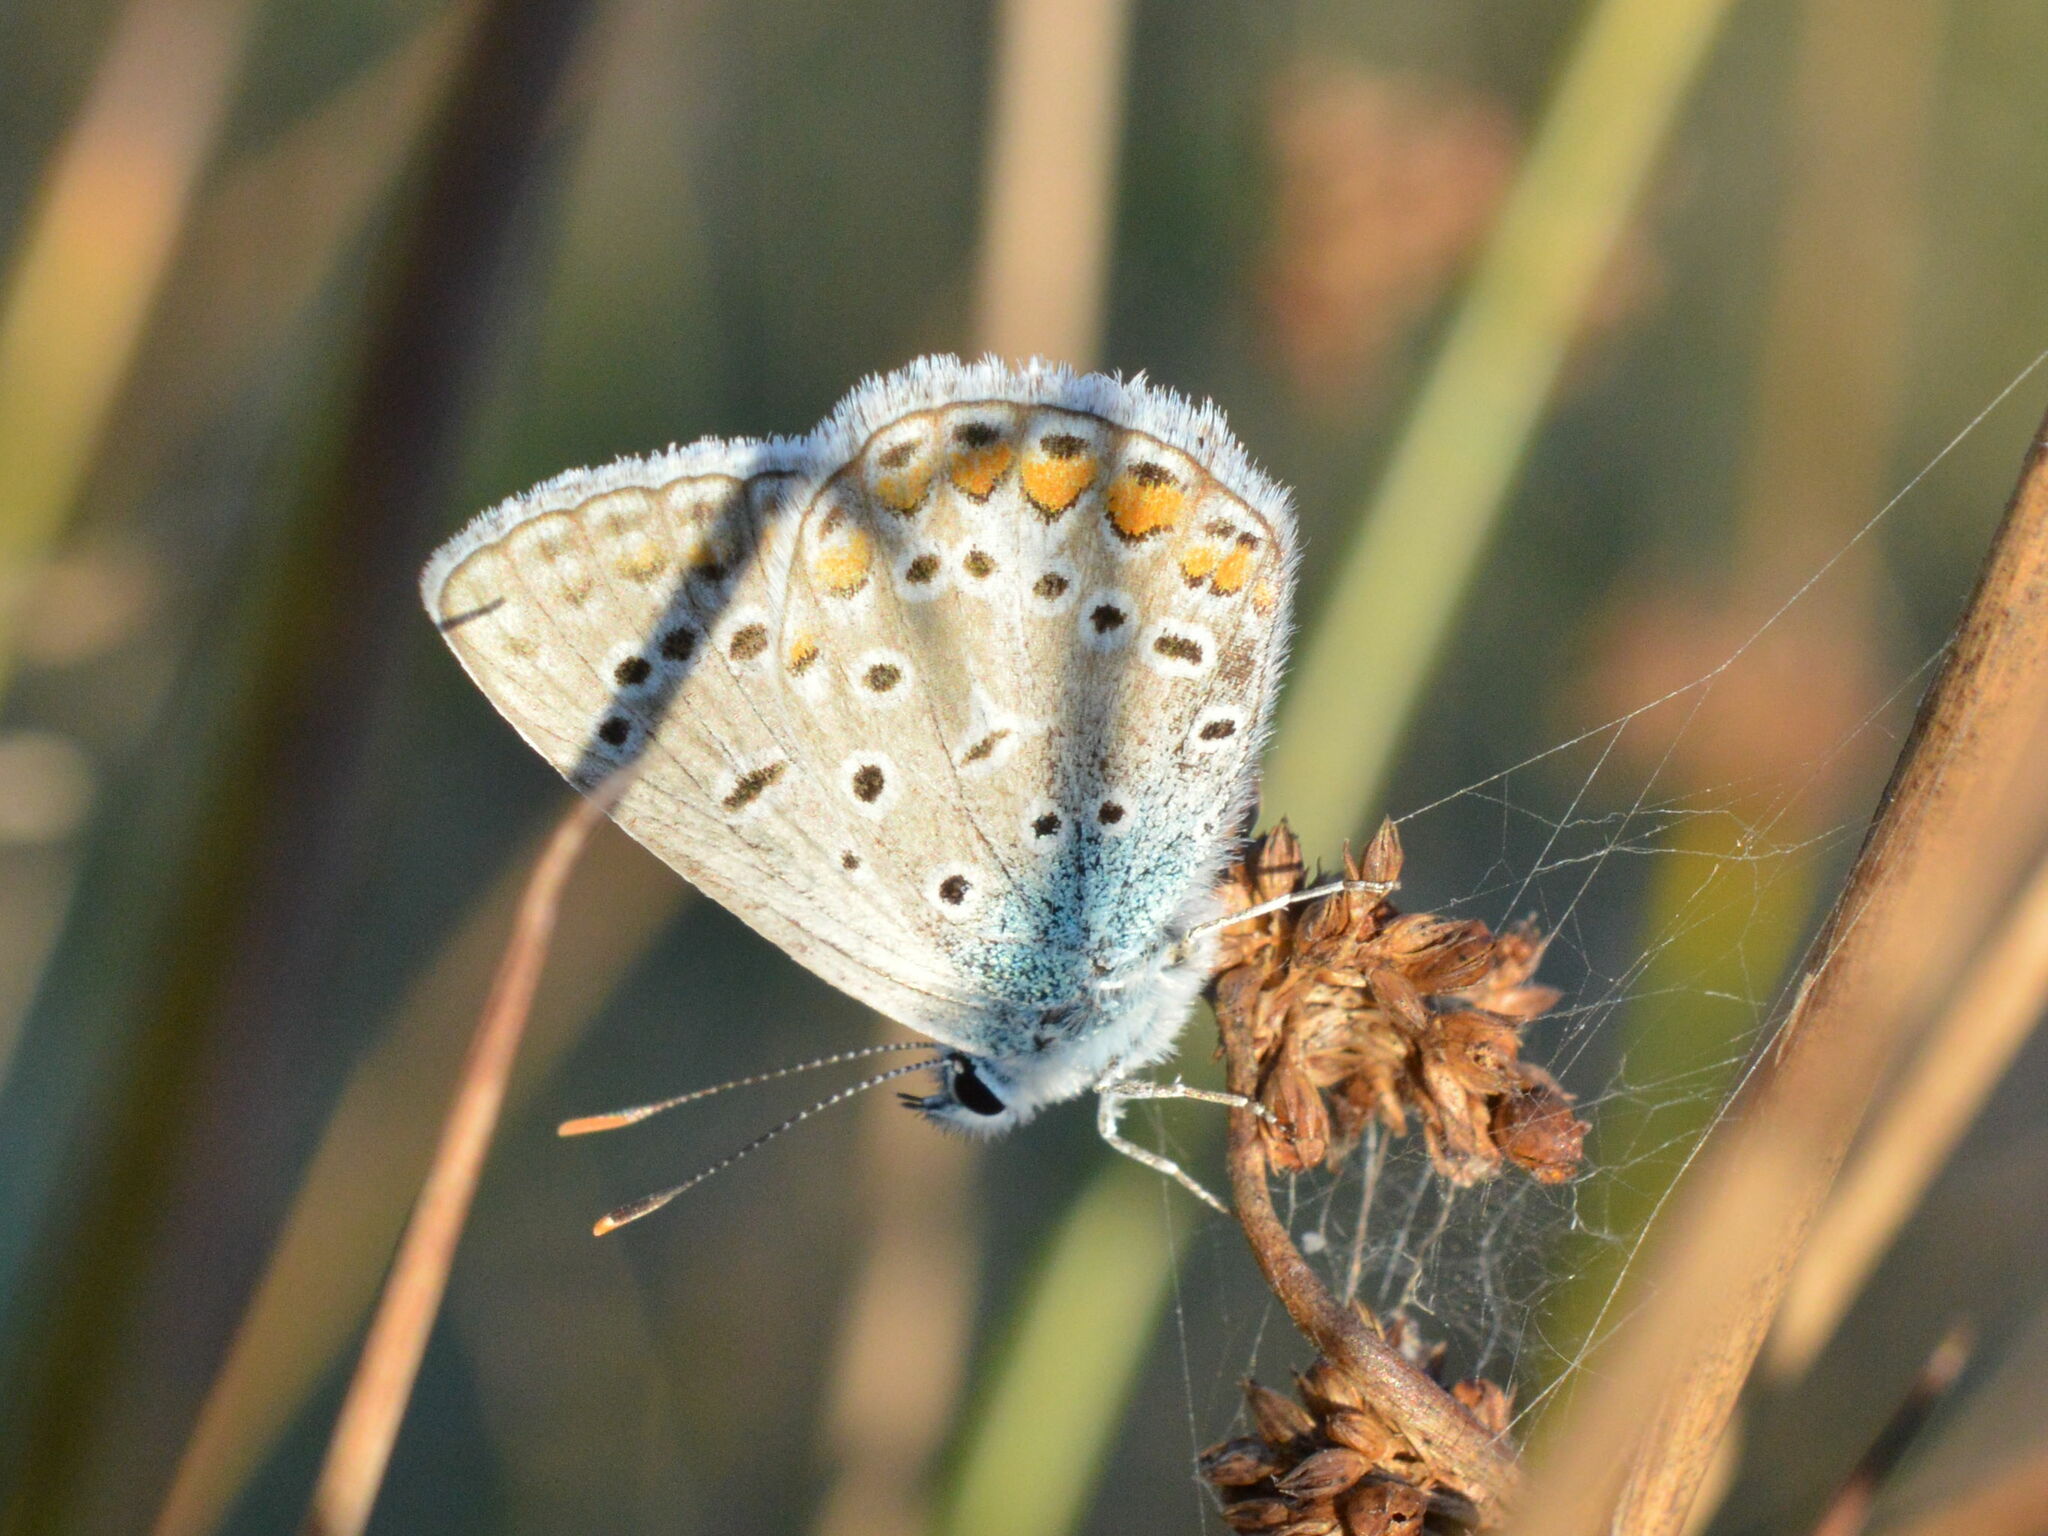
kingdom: Animalia
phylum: Arthropoda
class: Insecta
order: Lepidoptera
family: Lycaenidae
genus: Polyommatus
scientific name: Polyommatus icarus
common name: Common blue
